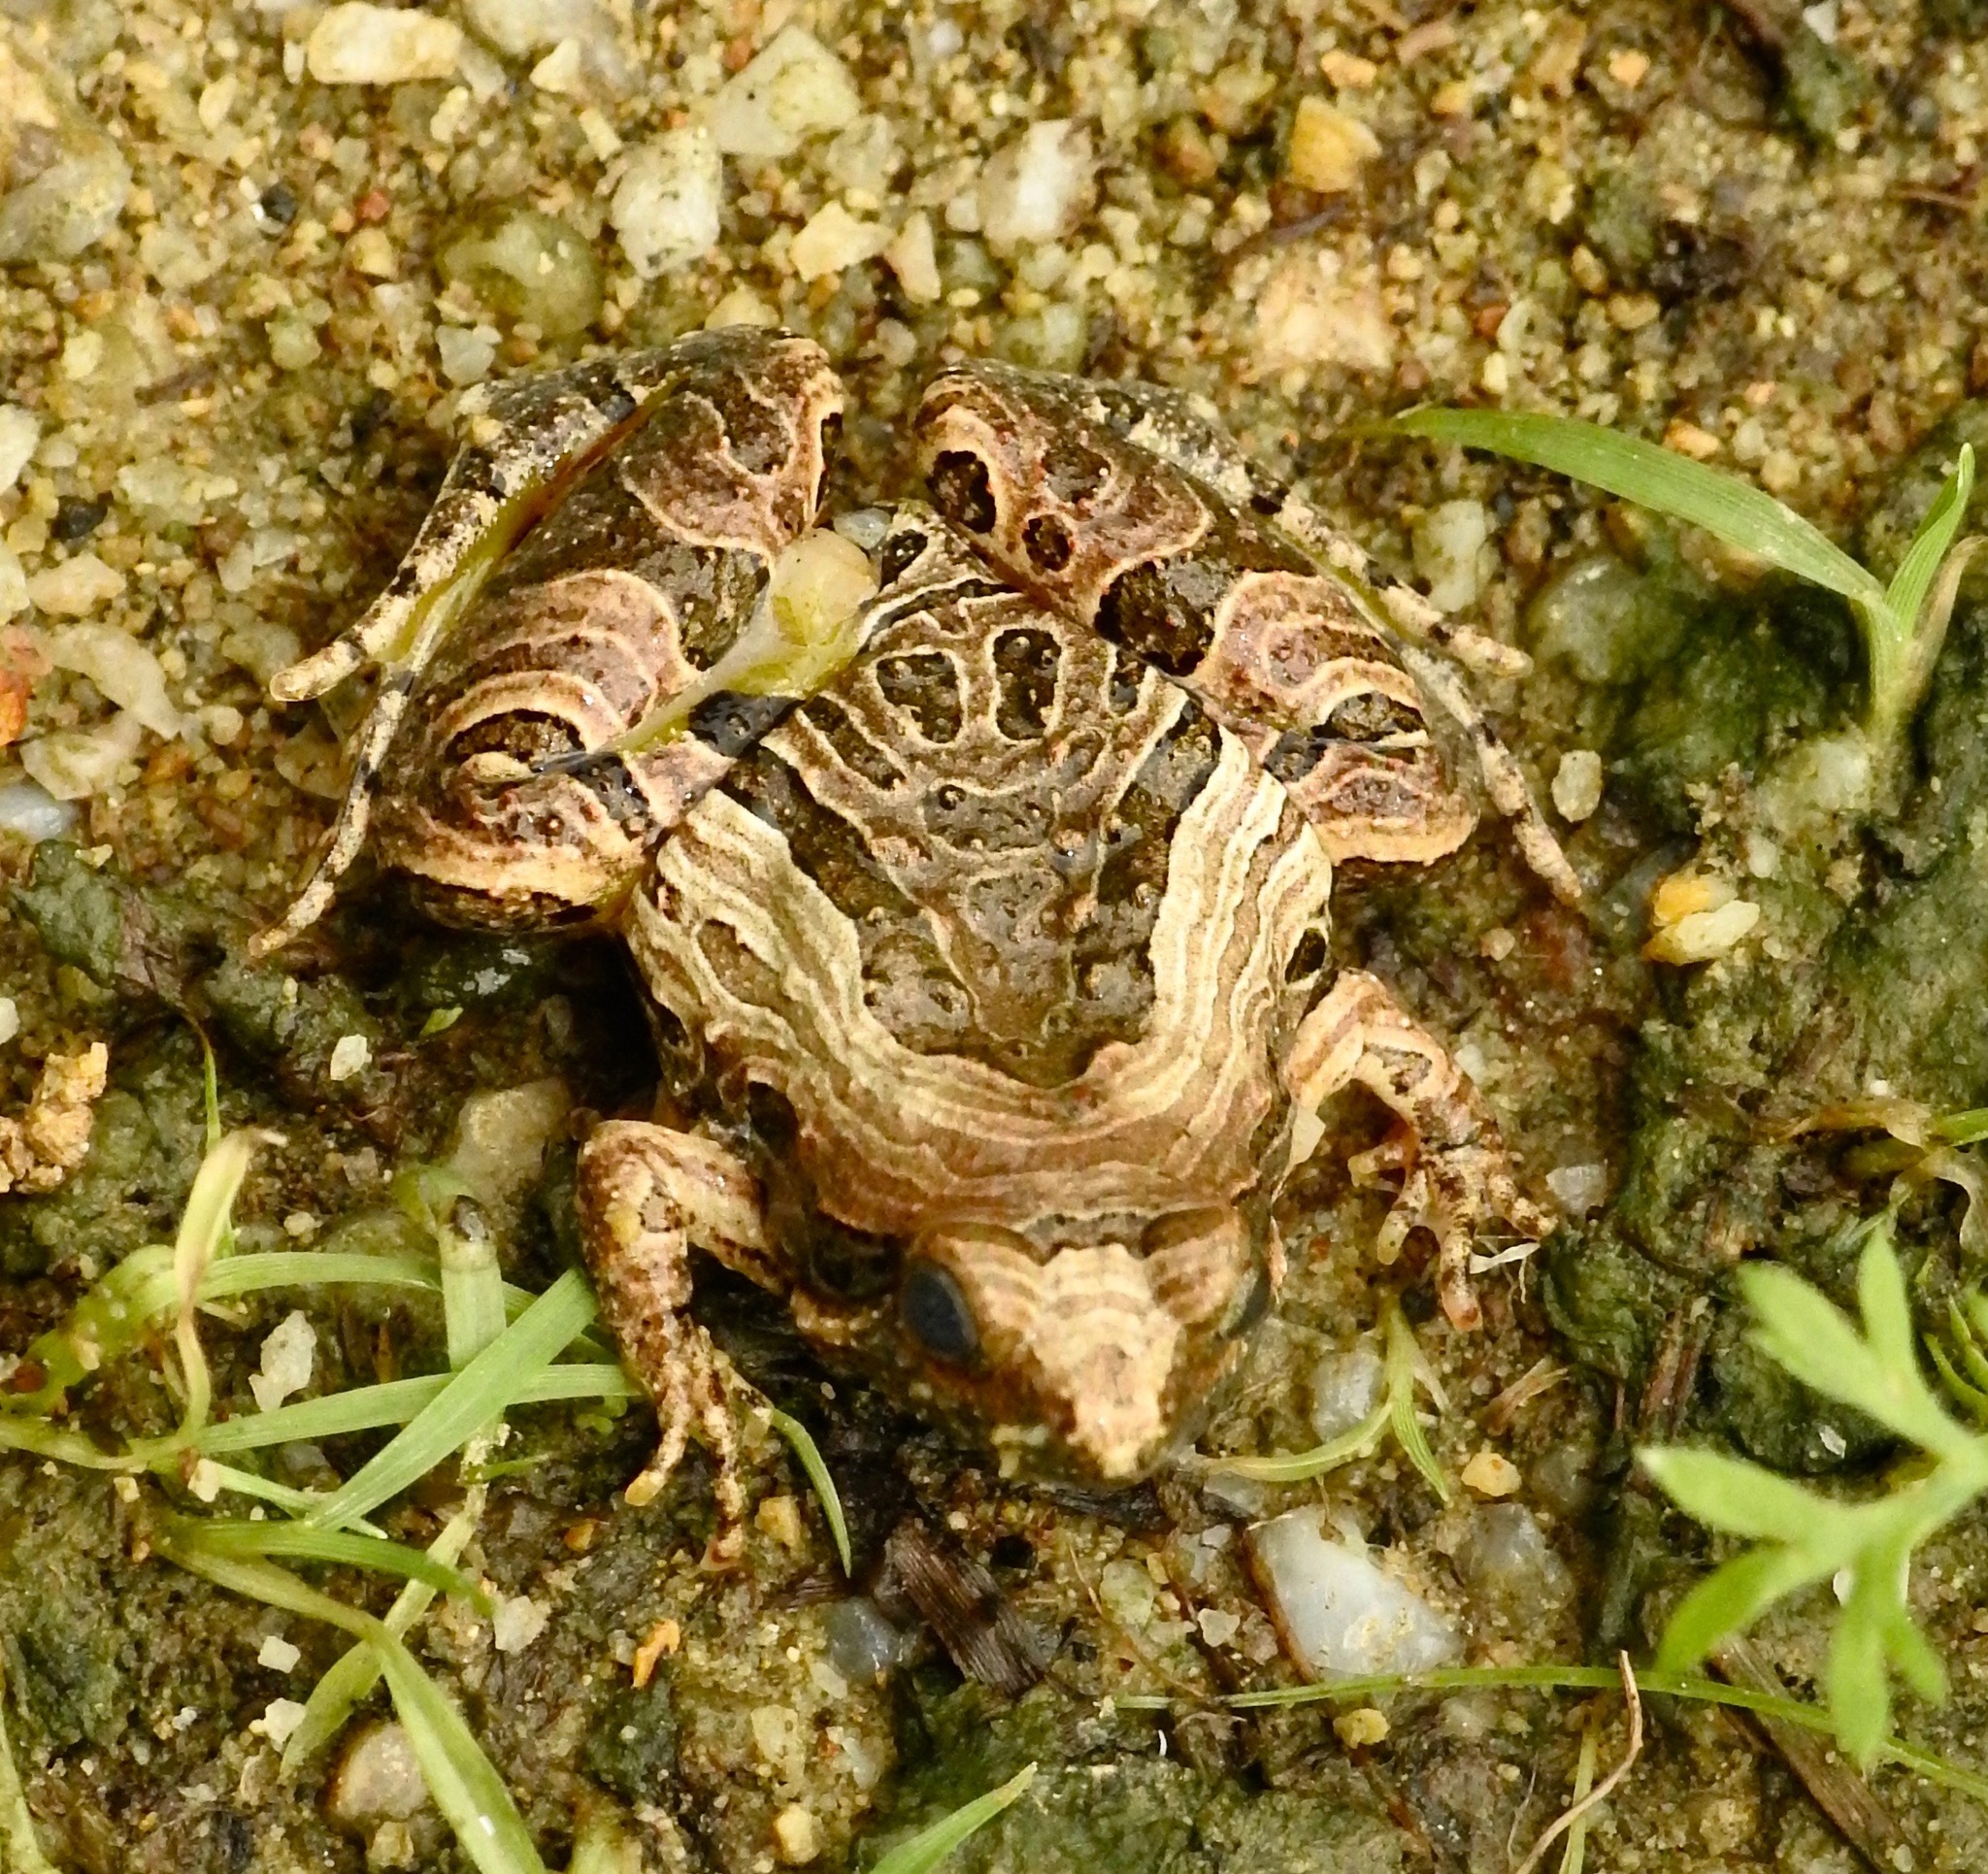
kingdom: Animalia
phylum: Chordata
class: Amphibia
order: Anura
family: Microhylidae
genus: Microhyla
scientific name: Microhyla pulchra
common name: Beautiful pygmy frog
